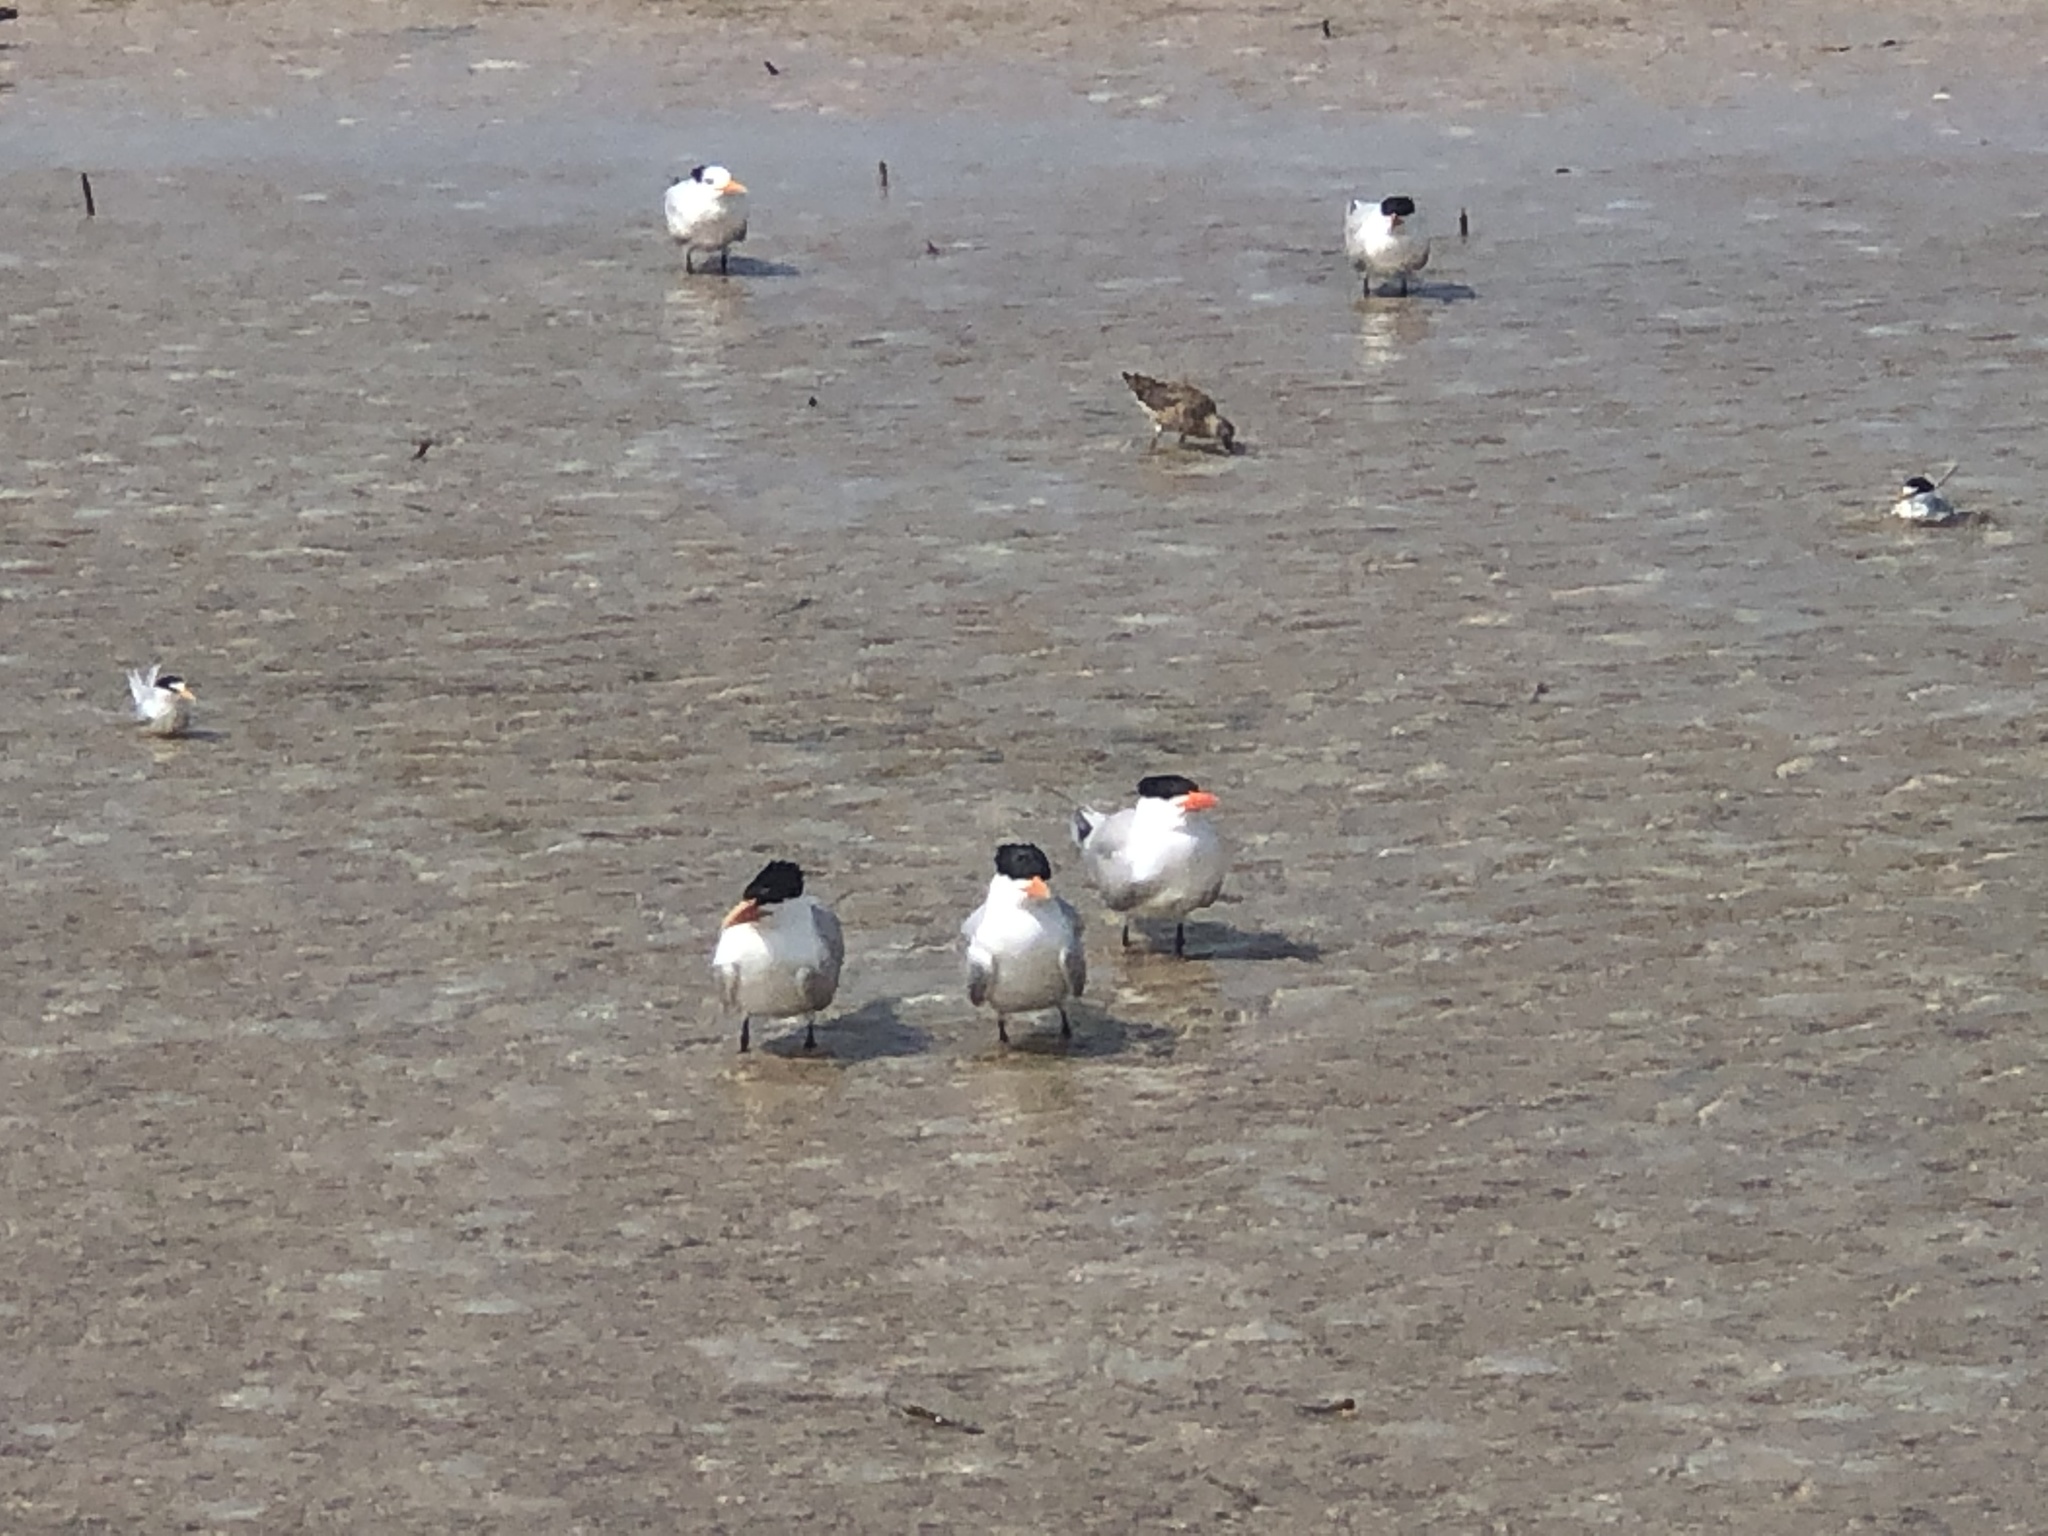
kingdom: Animalia
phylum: Chordata
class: Aves
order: Charadriiformes
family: Laridae
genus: Thalasseus
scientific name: Thalasseus maximus
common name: Royal tern
